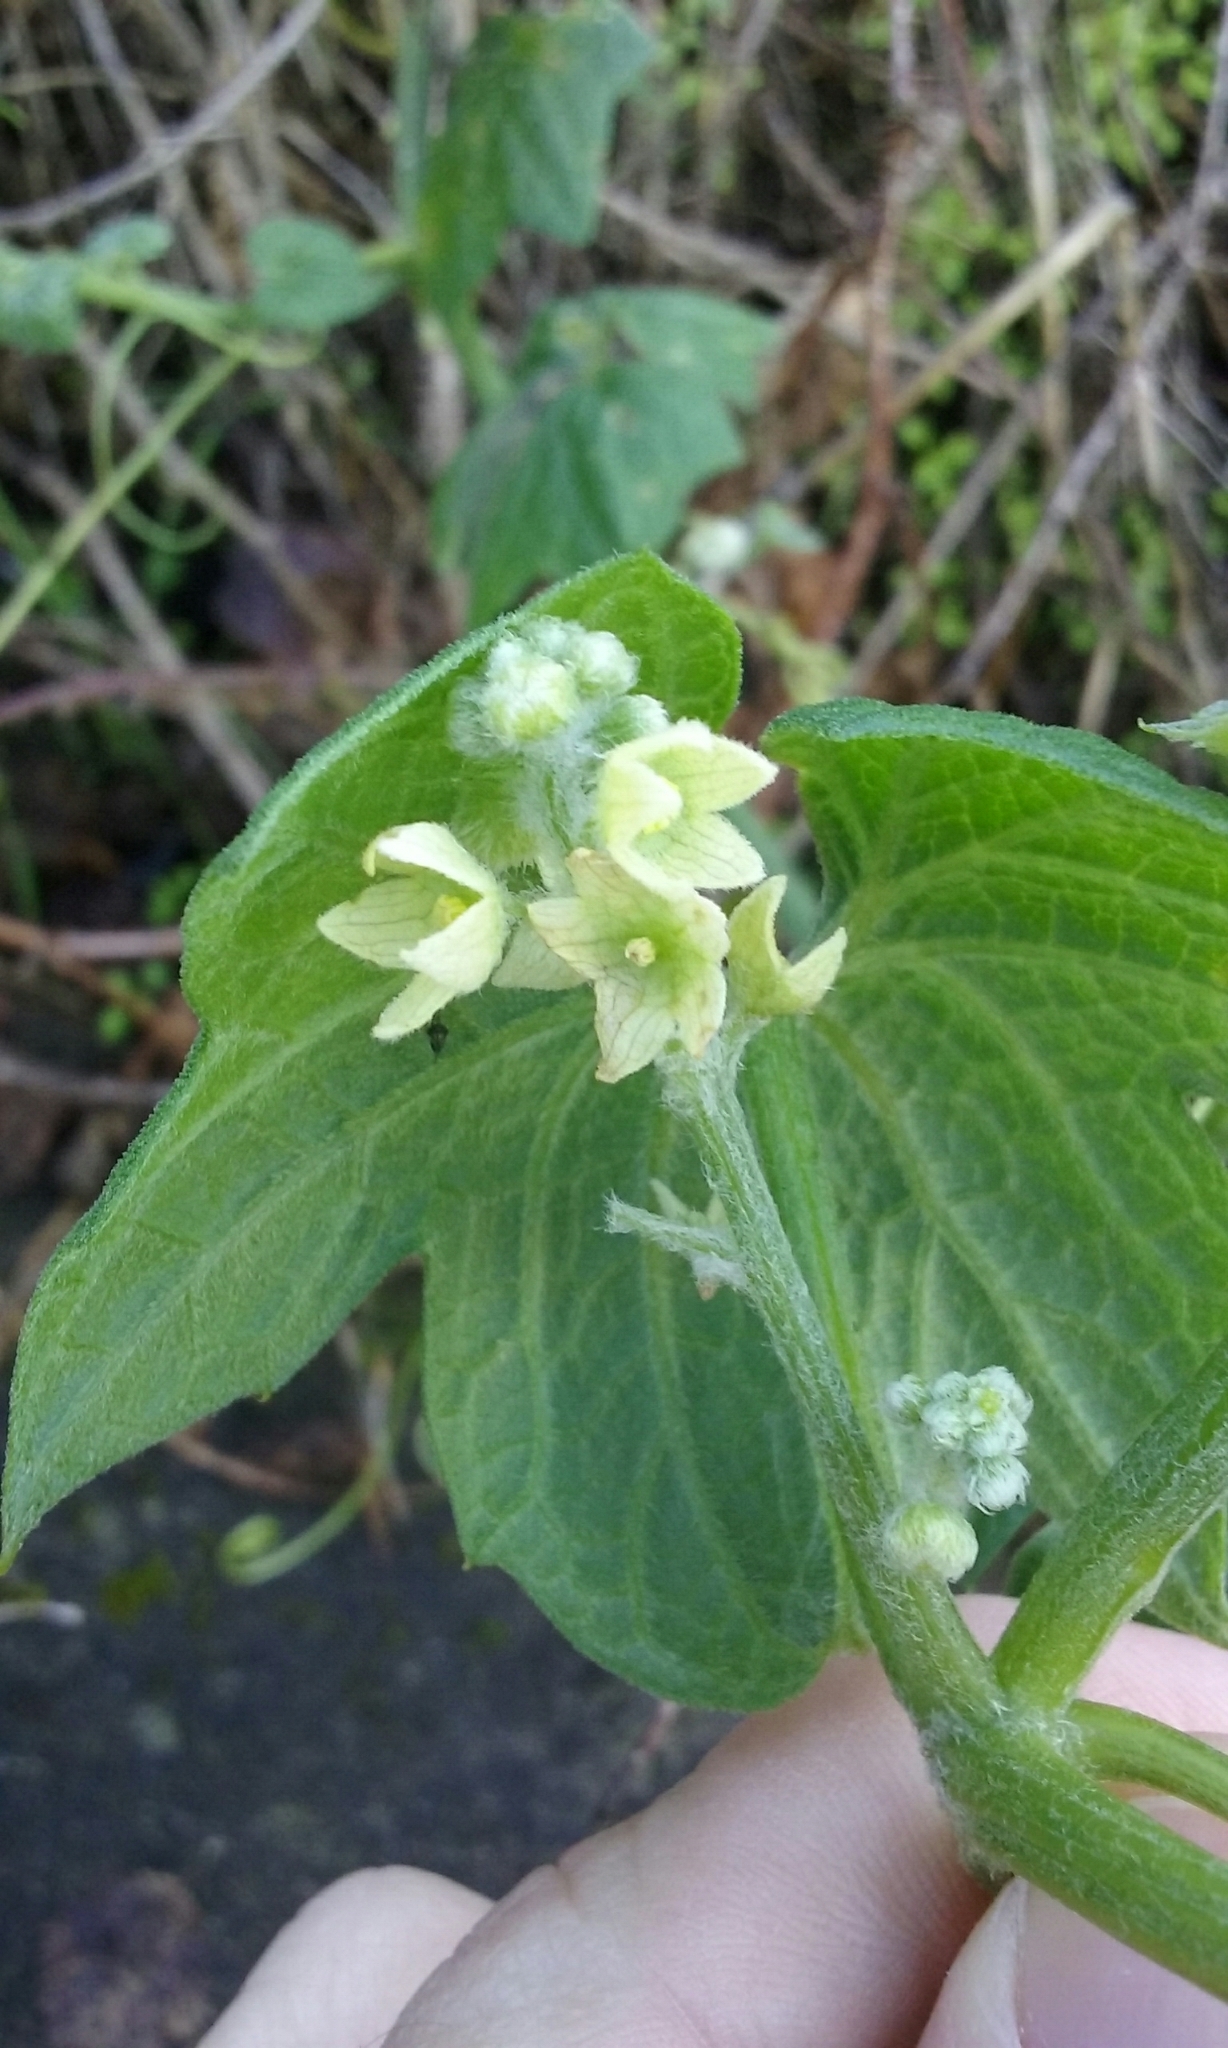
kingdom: Plantae
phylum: Tracheophyta
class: Magnoliopsida
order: Cucurbitales
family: Cucurbitaceae
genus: Marah
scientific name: Marah fabacea
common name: California manroot
